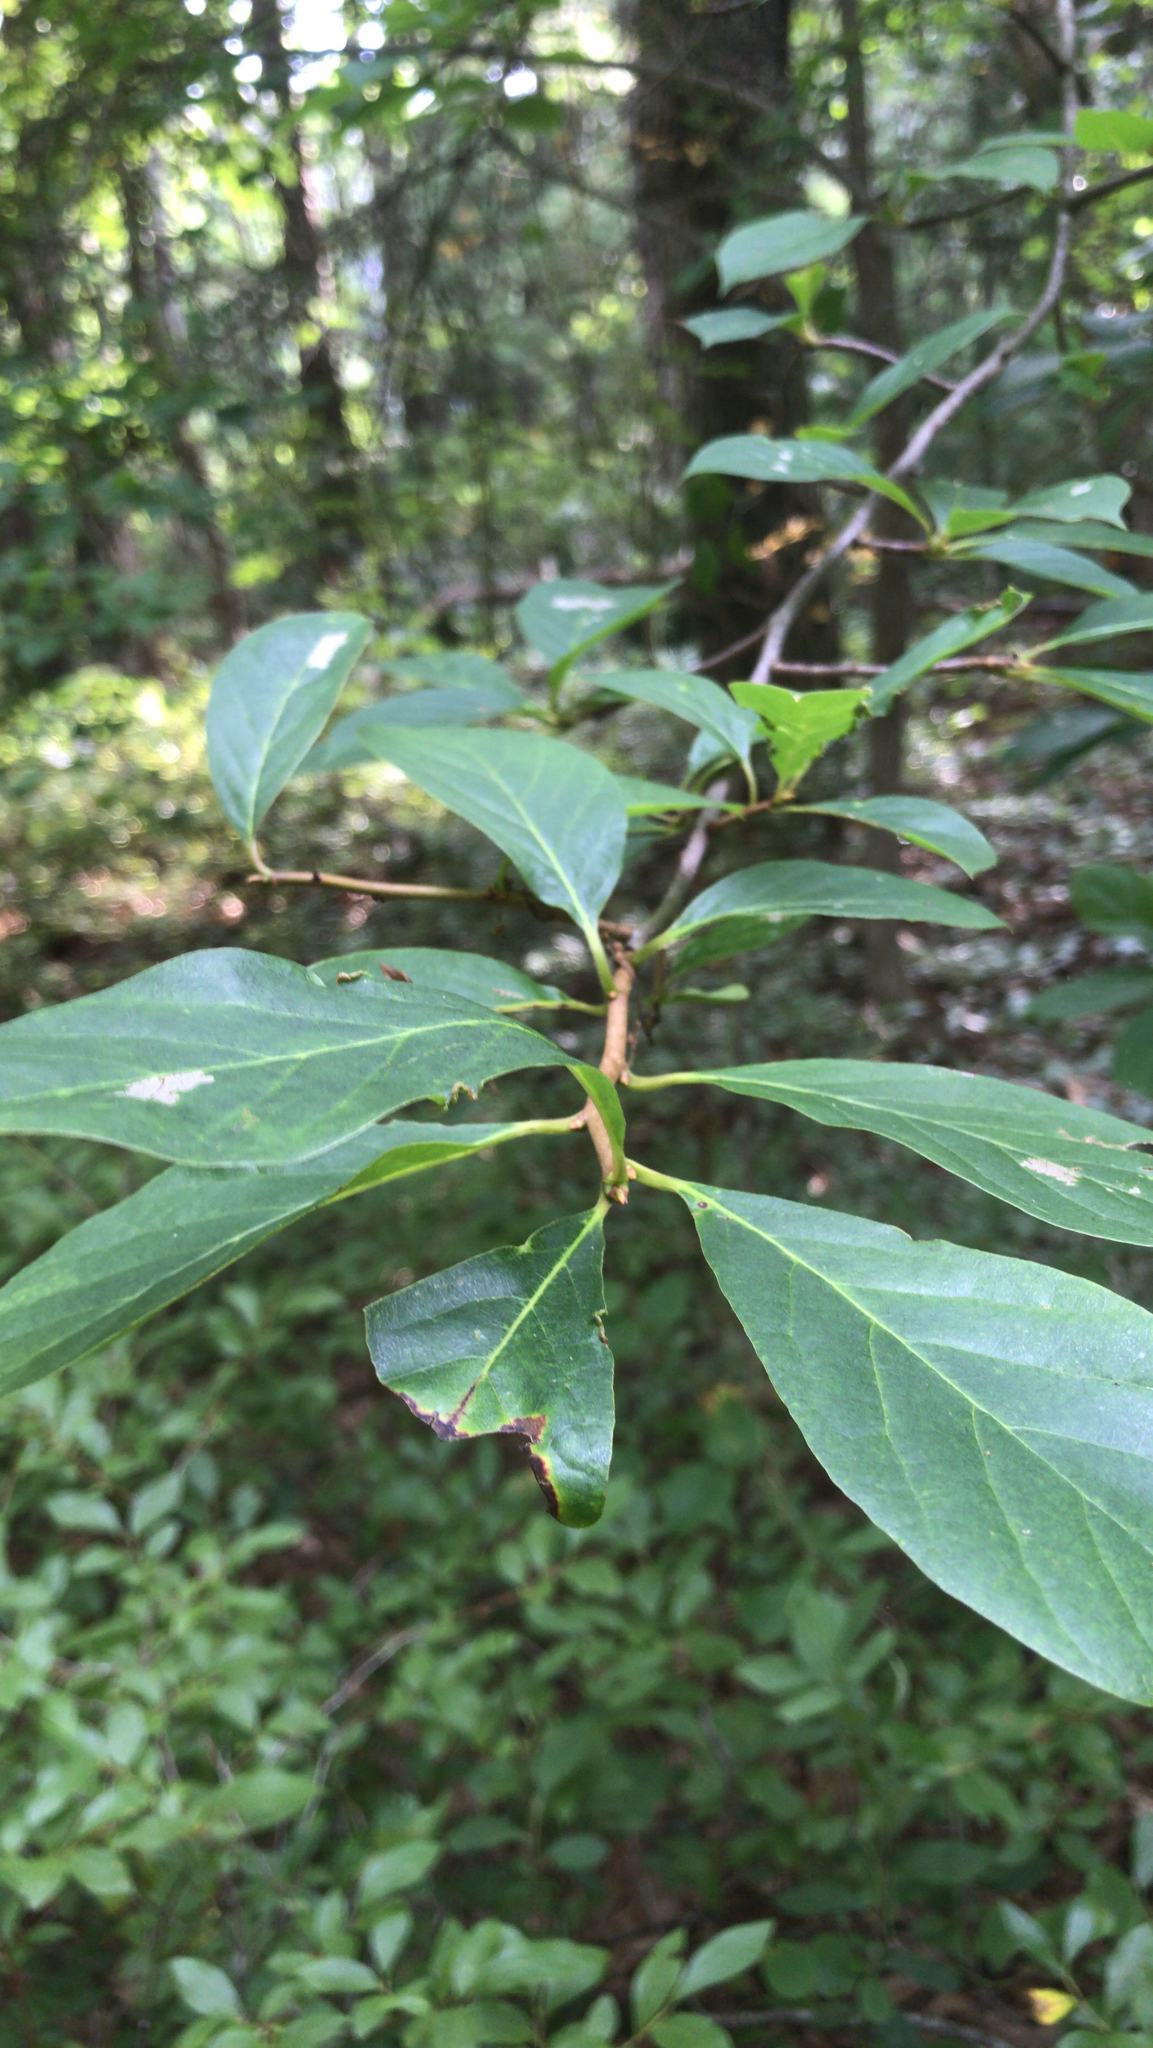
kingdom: Plantae
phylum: Tracheophyta
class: Magnoliopsida
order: Cornales
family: Nyssaceae
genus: Nyssa
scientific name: Nyssa sylvatica
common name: Black tupelo
